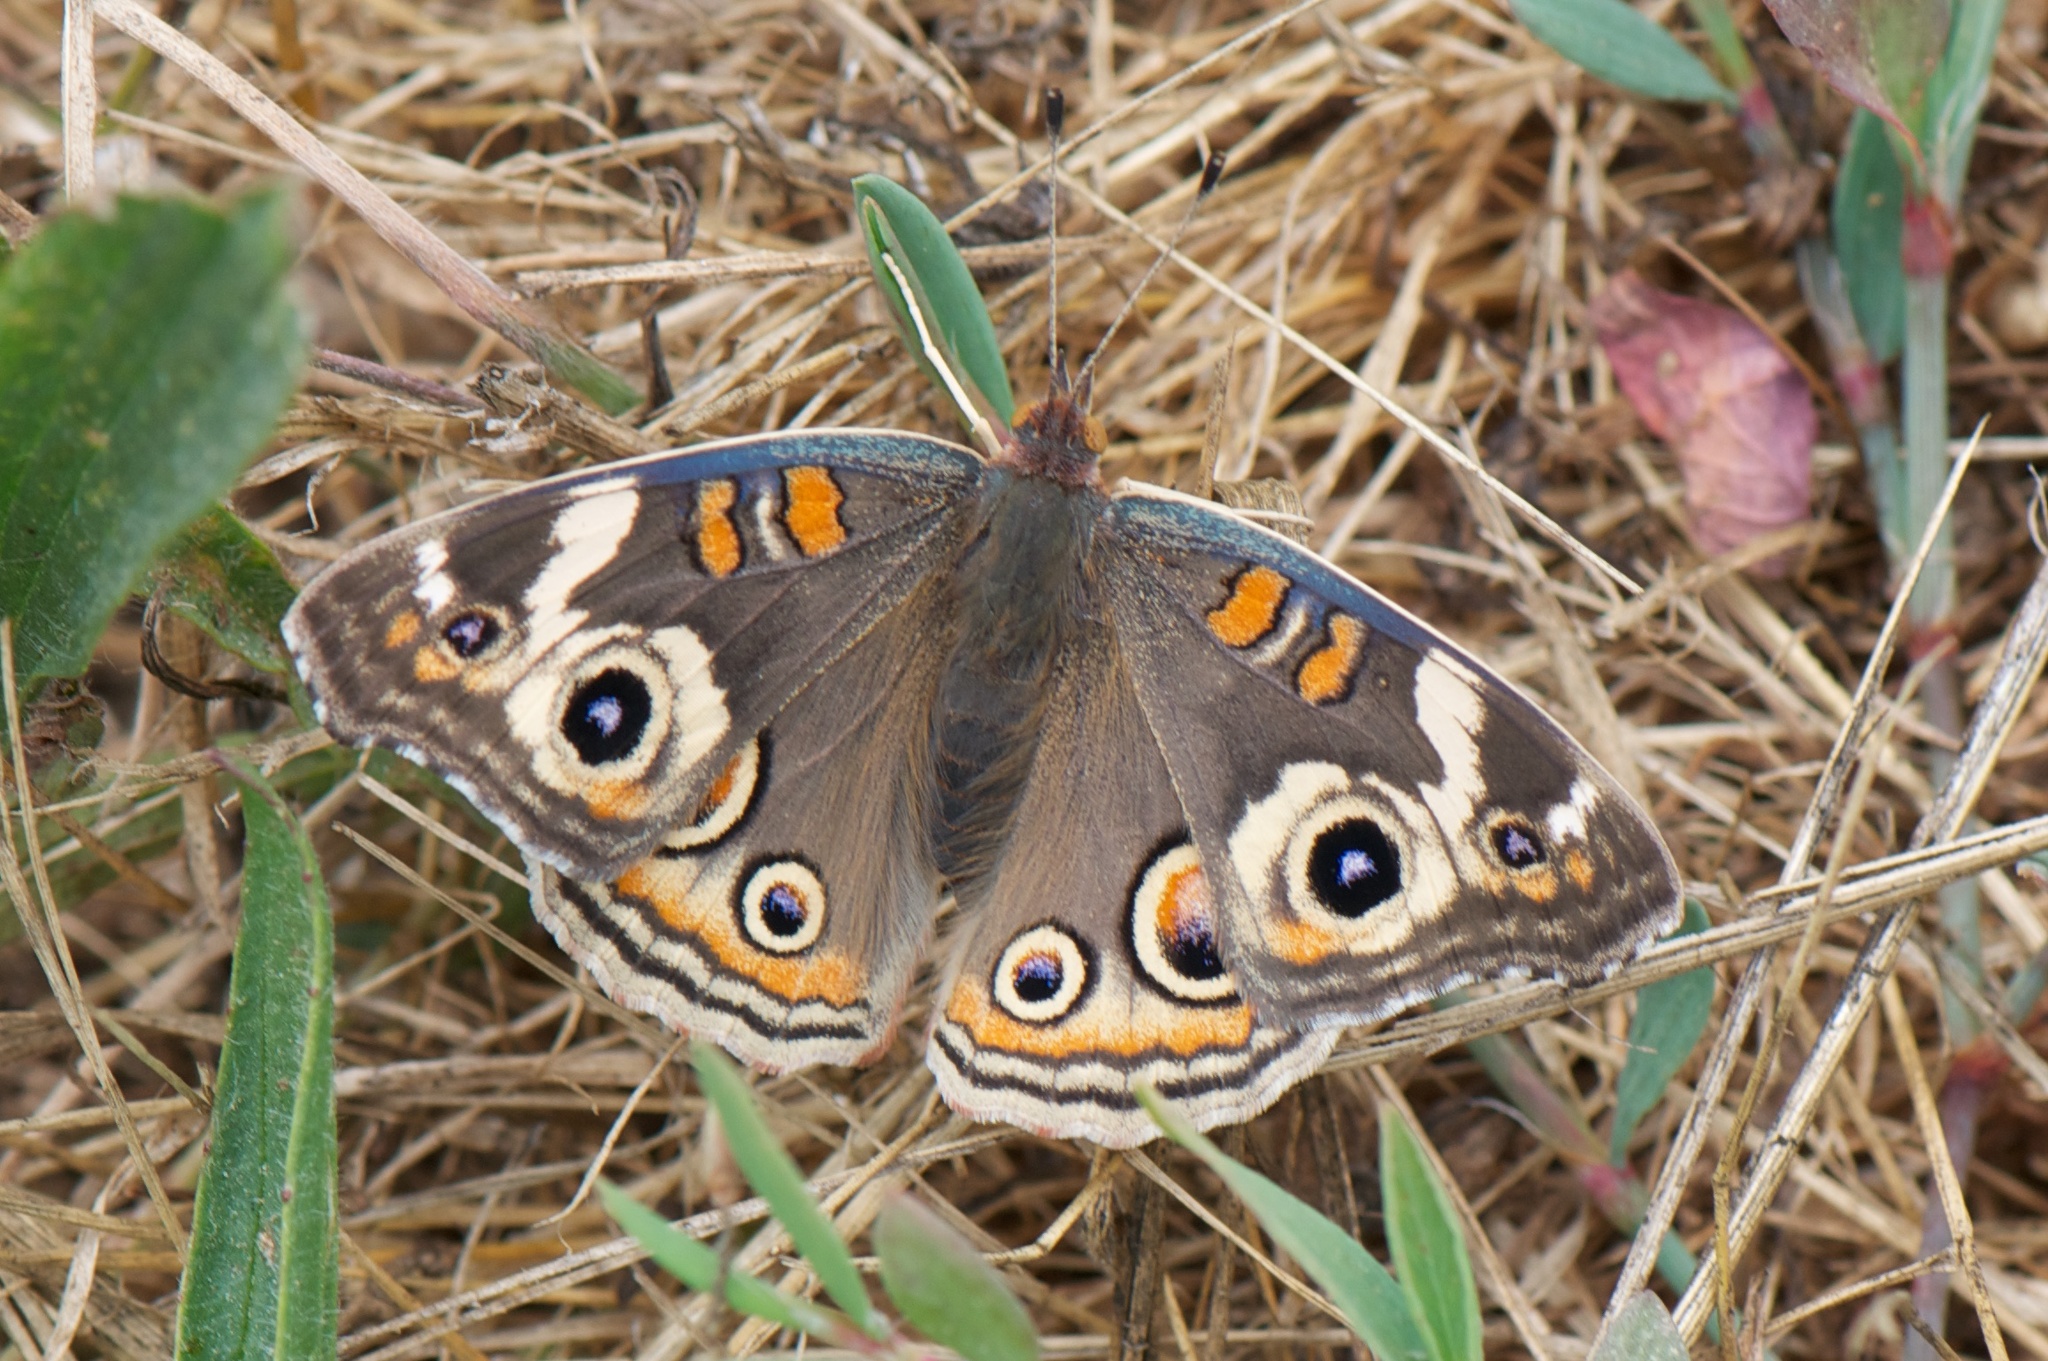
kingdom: Animalia
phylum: Arthropoda
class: Insecta
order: Lepidoptera
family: Nymphalidae
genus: Junonia
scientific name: Junonia grisea
